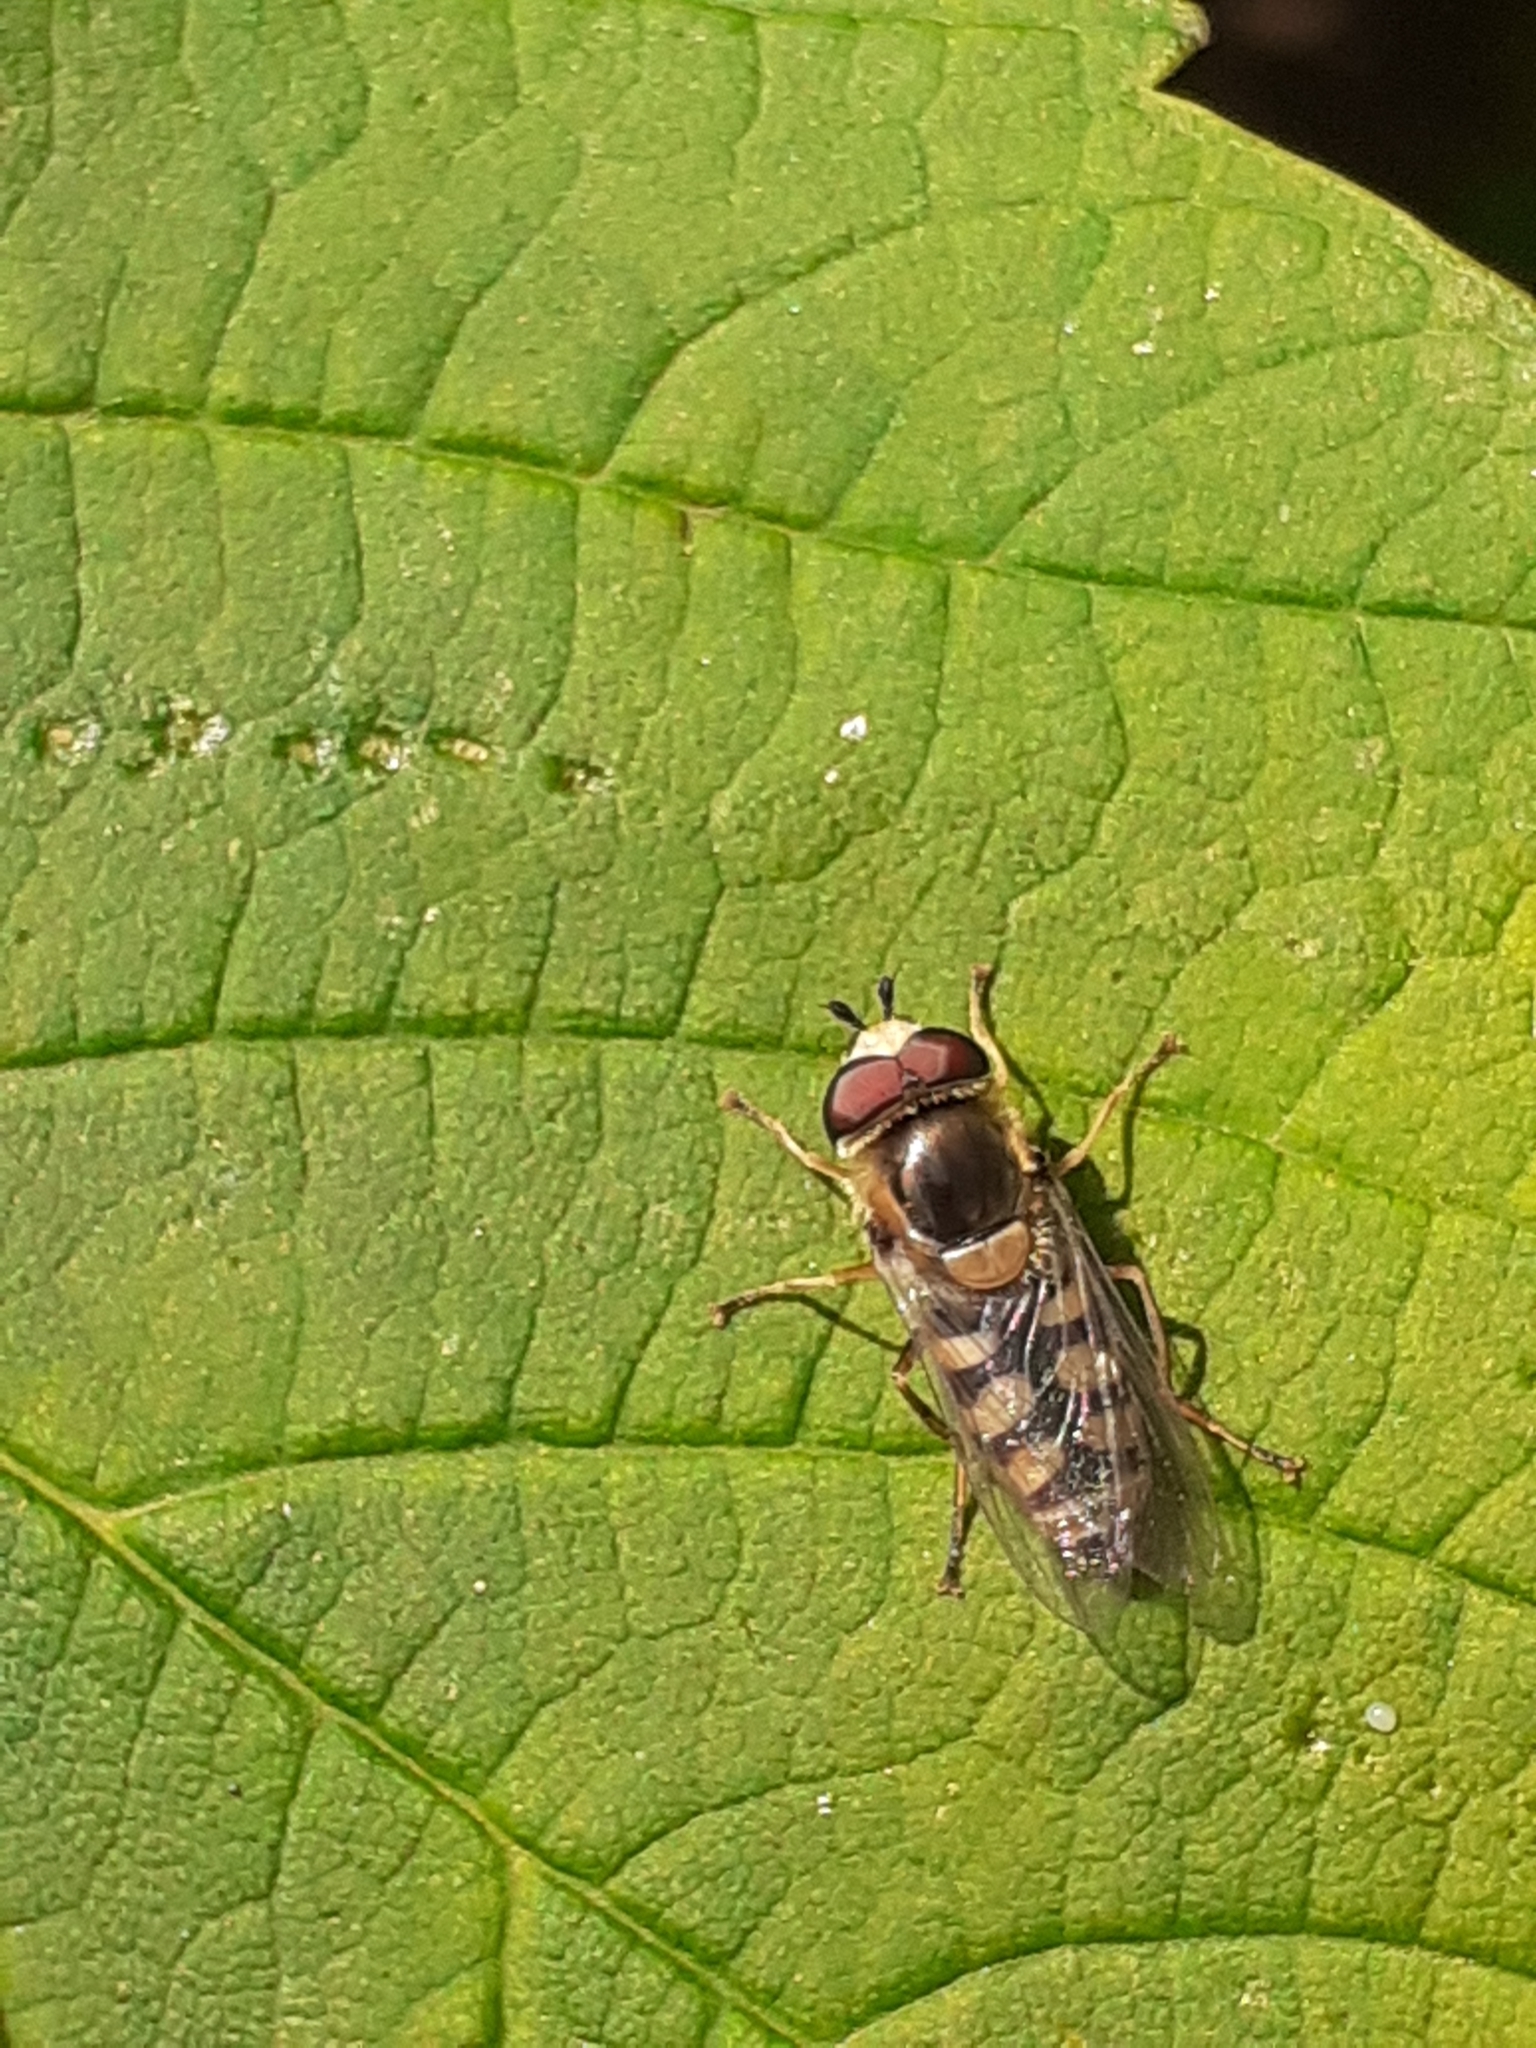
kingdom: Animalia
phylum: Arthropoda
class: Insecta
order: Diptera
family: Syrphidae
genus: Eupeodes
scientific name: Eupeodes corollae
